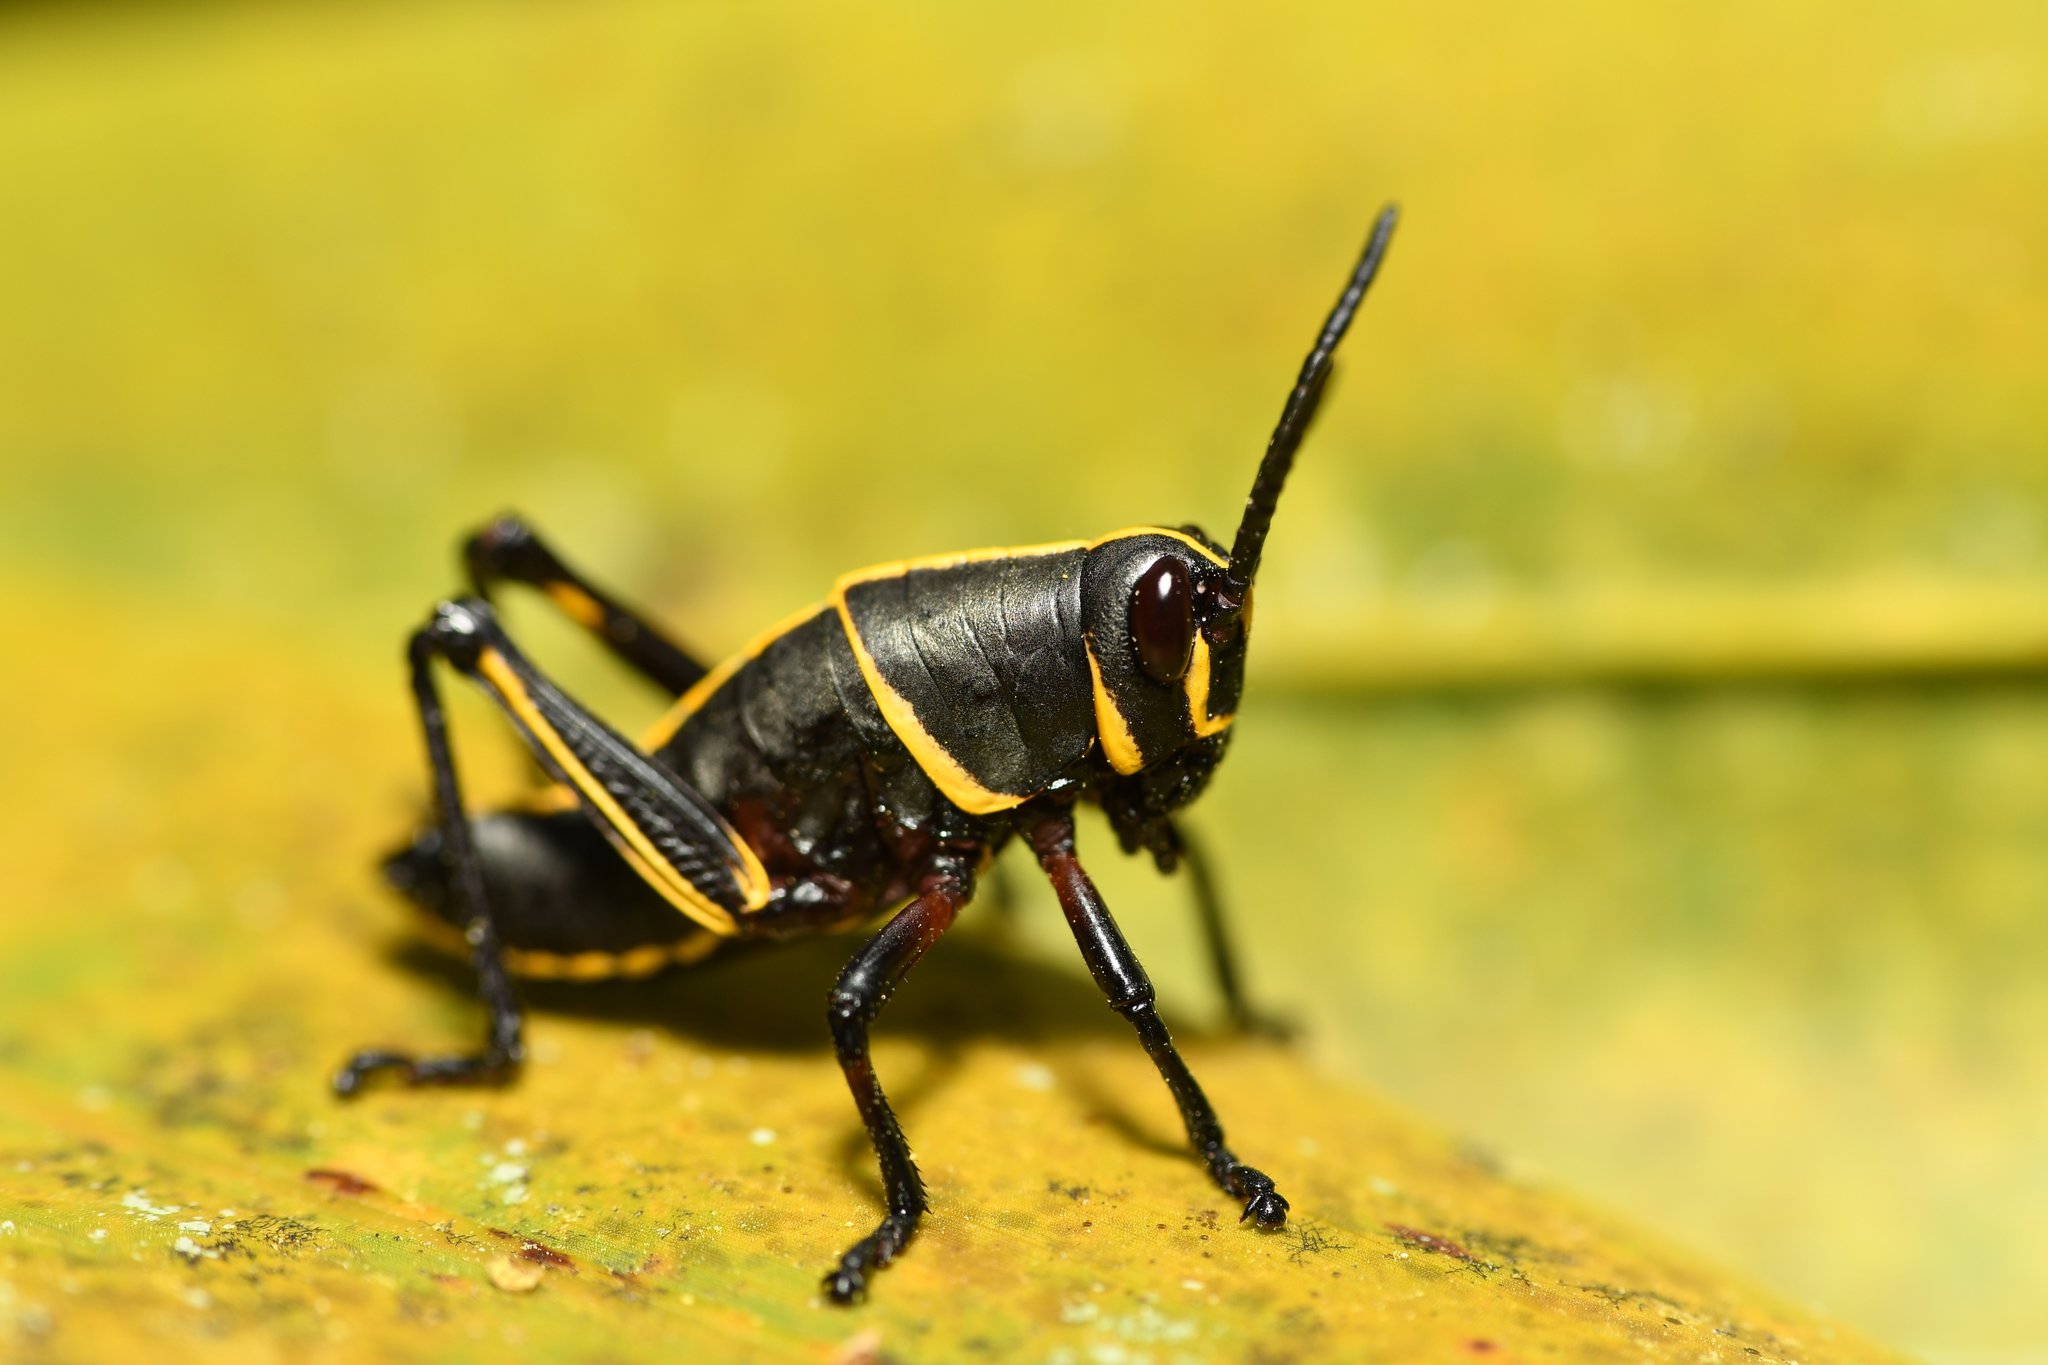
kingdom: Animalia
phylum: Arthropoda
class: Insecta
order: Orthoptera
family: Romaleidae
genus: Romalea
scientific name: Romalea microptera
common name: Eastern lubber grasshopper
